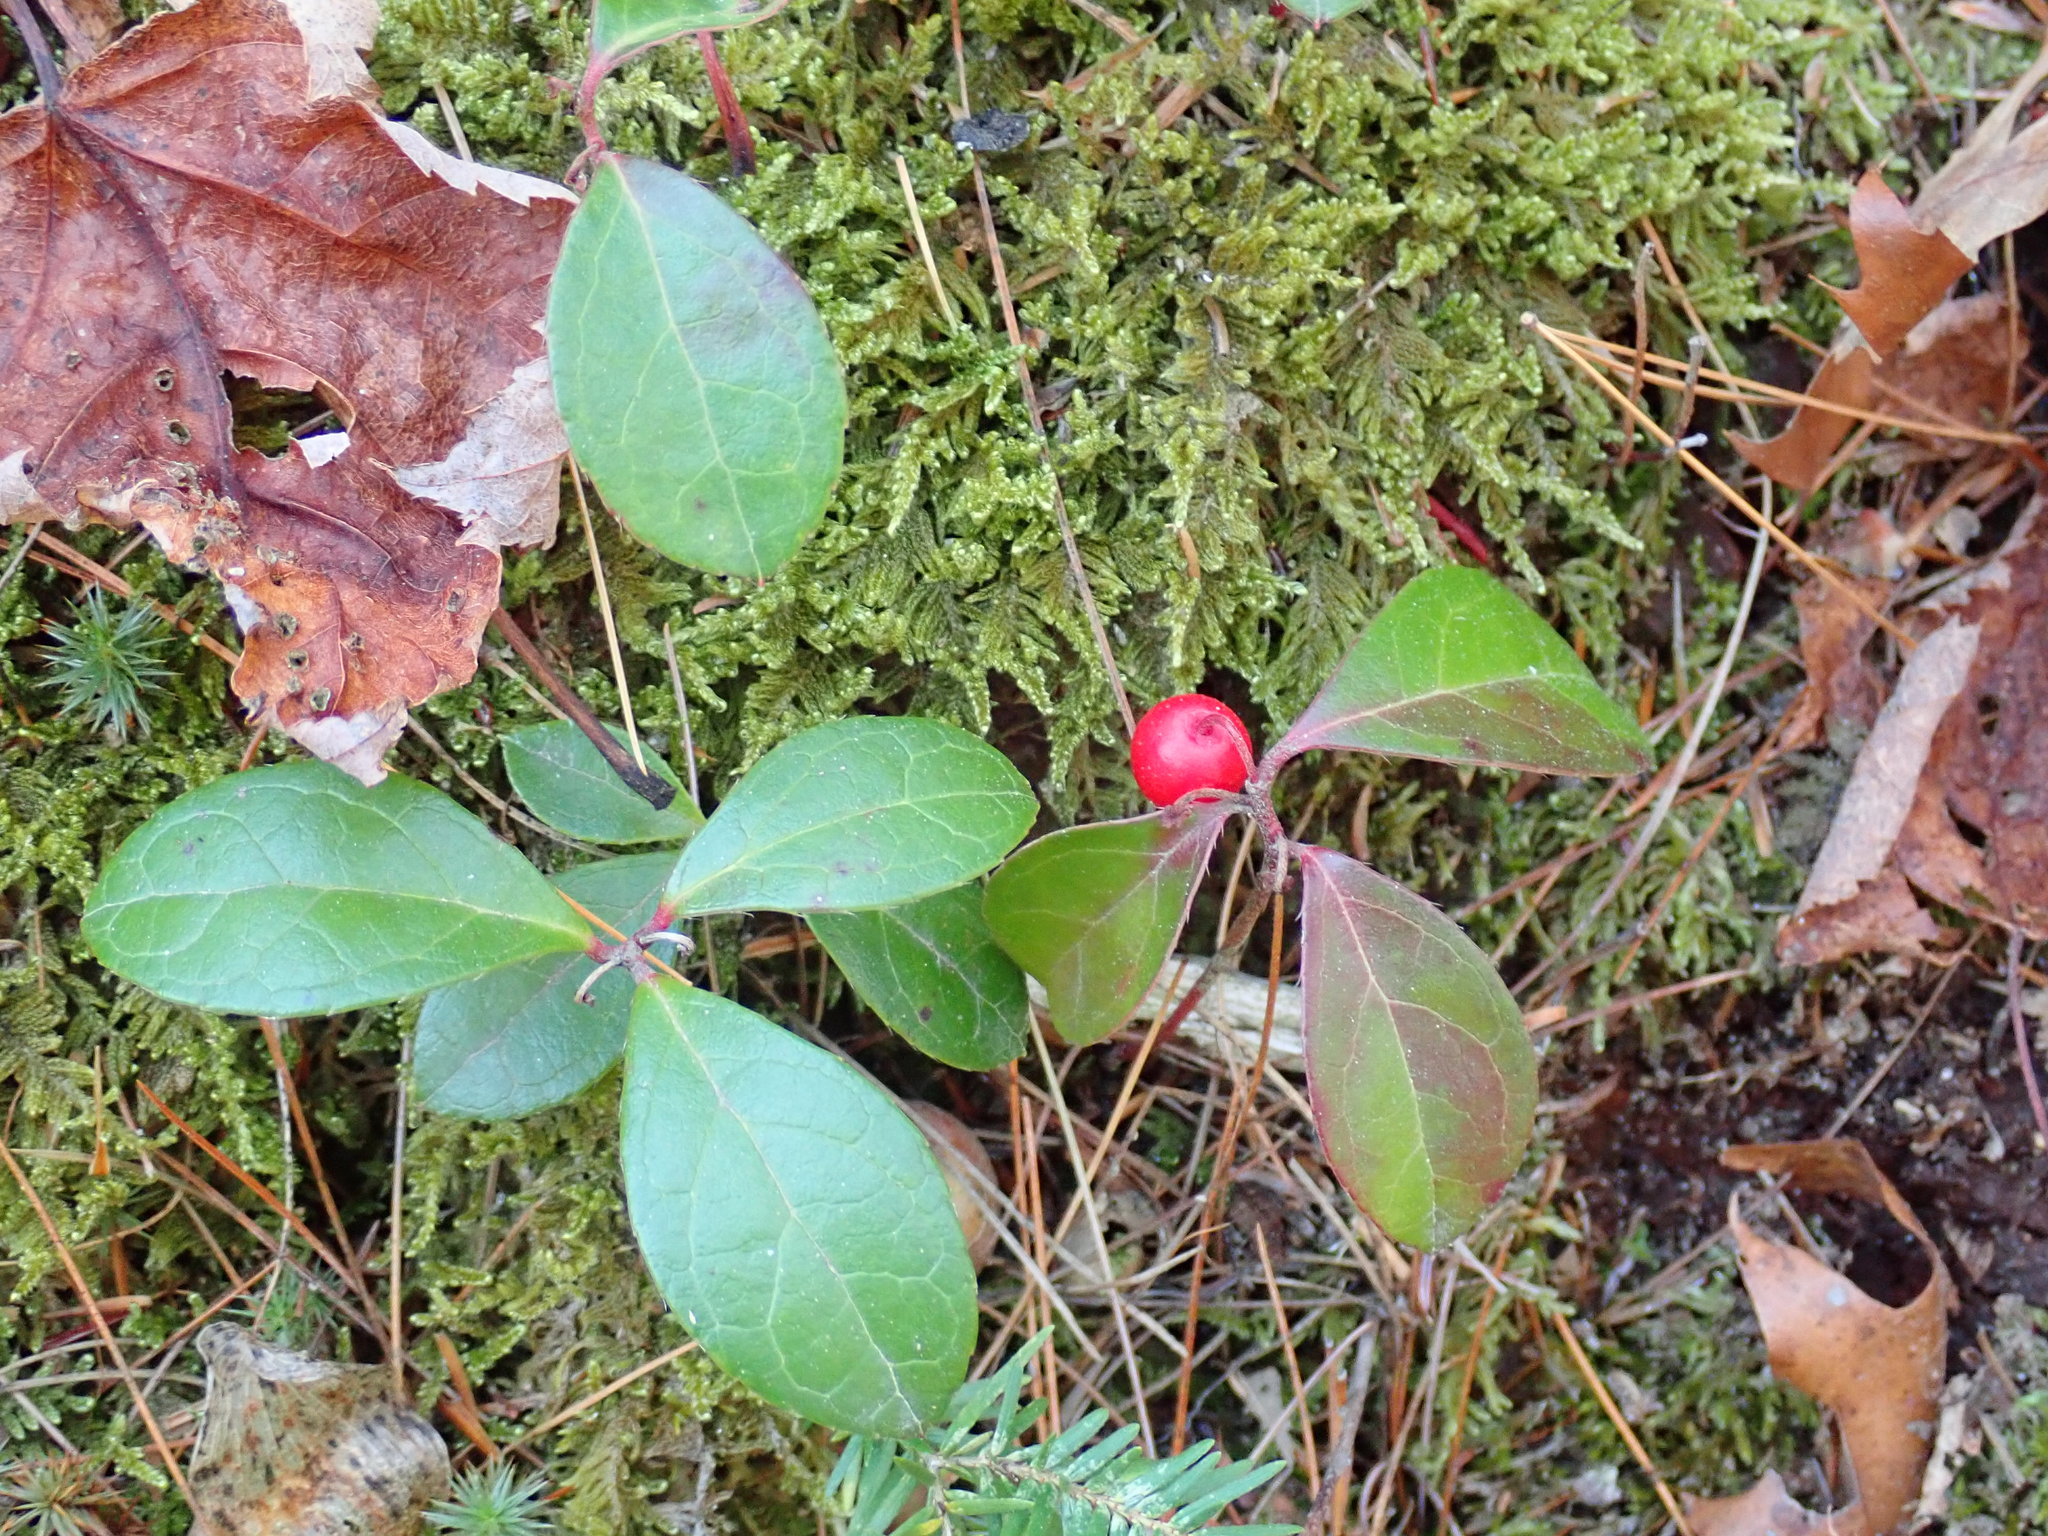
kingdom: Plantae
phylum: Tracheophyta
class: Magnoliopsida
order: Ericales
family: Ericaceae
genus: Gaultheria
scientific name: Gaultheria procumbens
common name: Checkerberry
